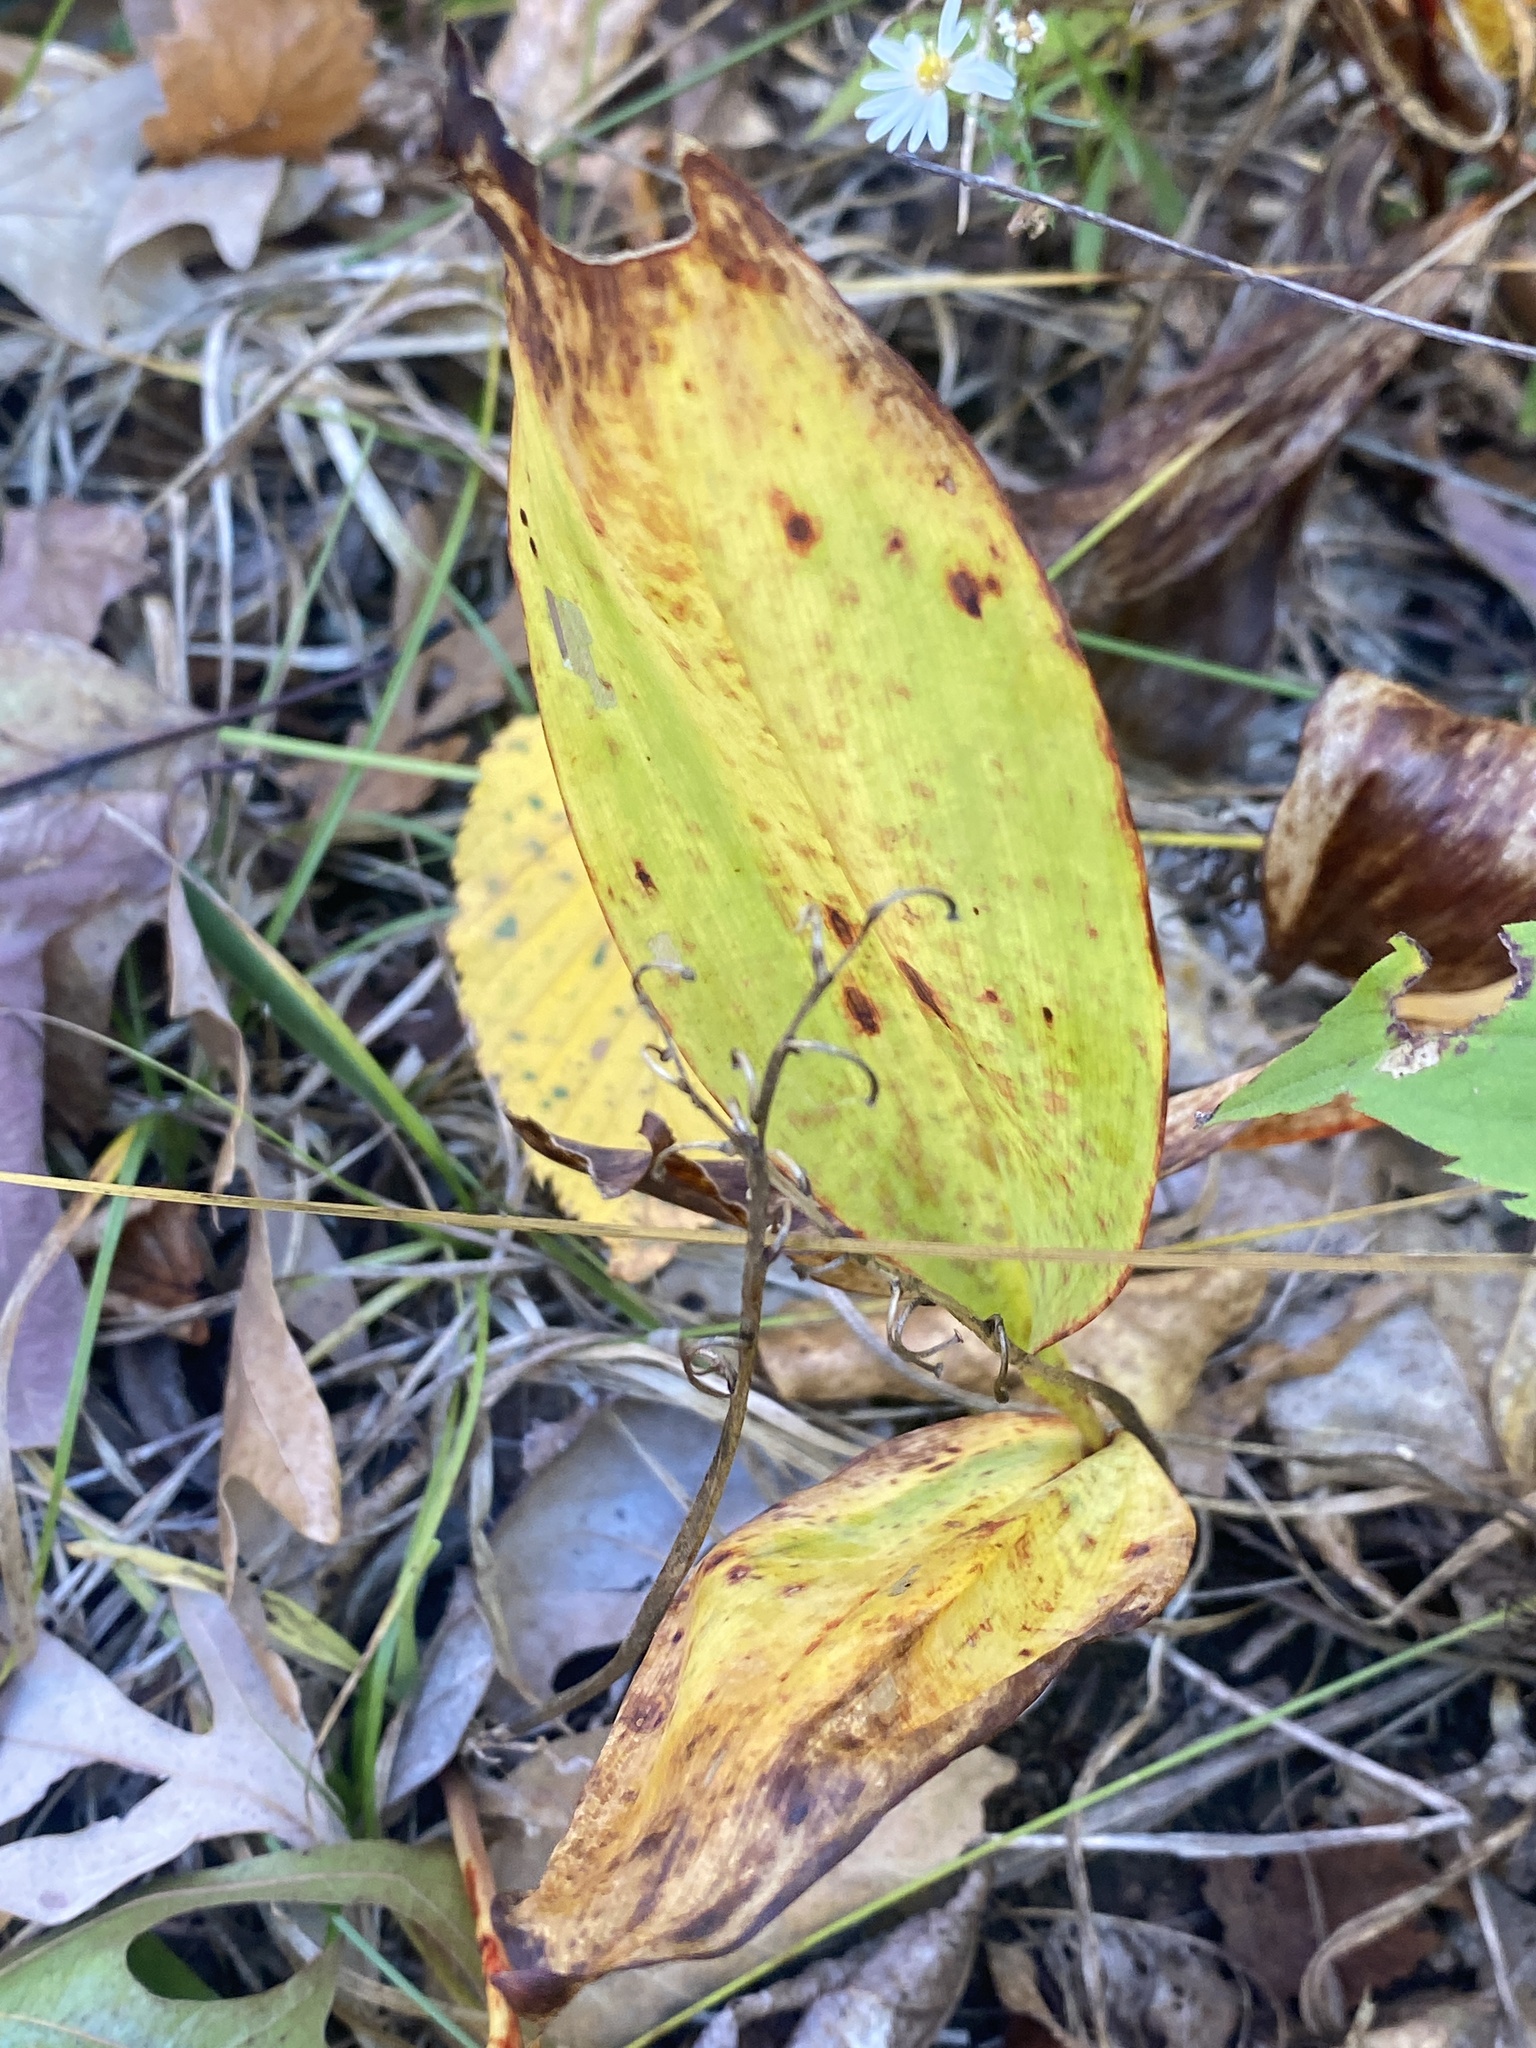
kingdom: Plantae
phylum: Tracheophyta
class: Liliopsida
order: Asparagales
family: Asparagaceae
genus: Convallaria
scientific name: Convallaria majalis
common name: Lily-of-the-valley
